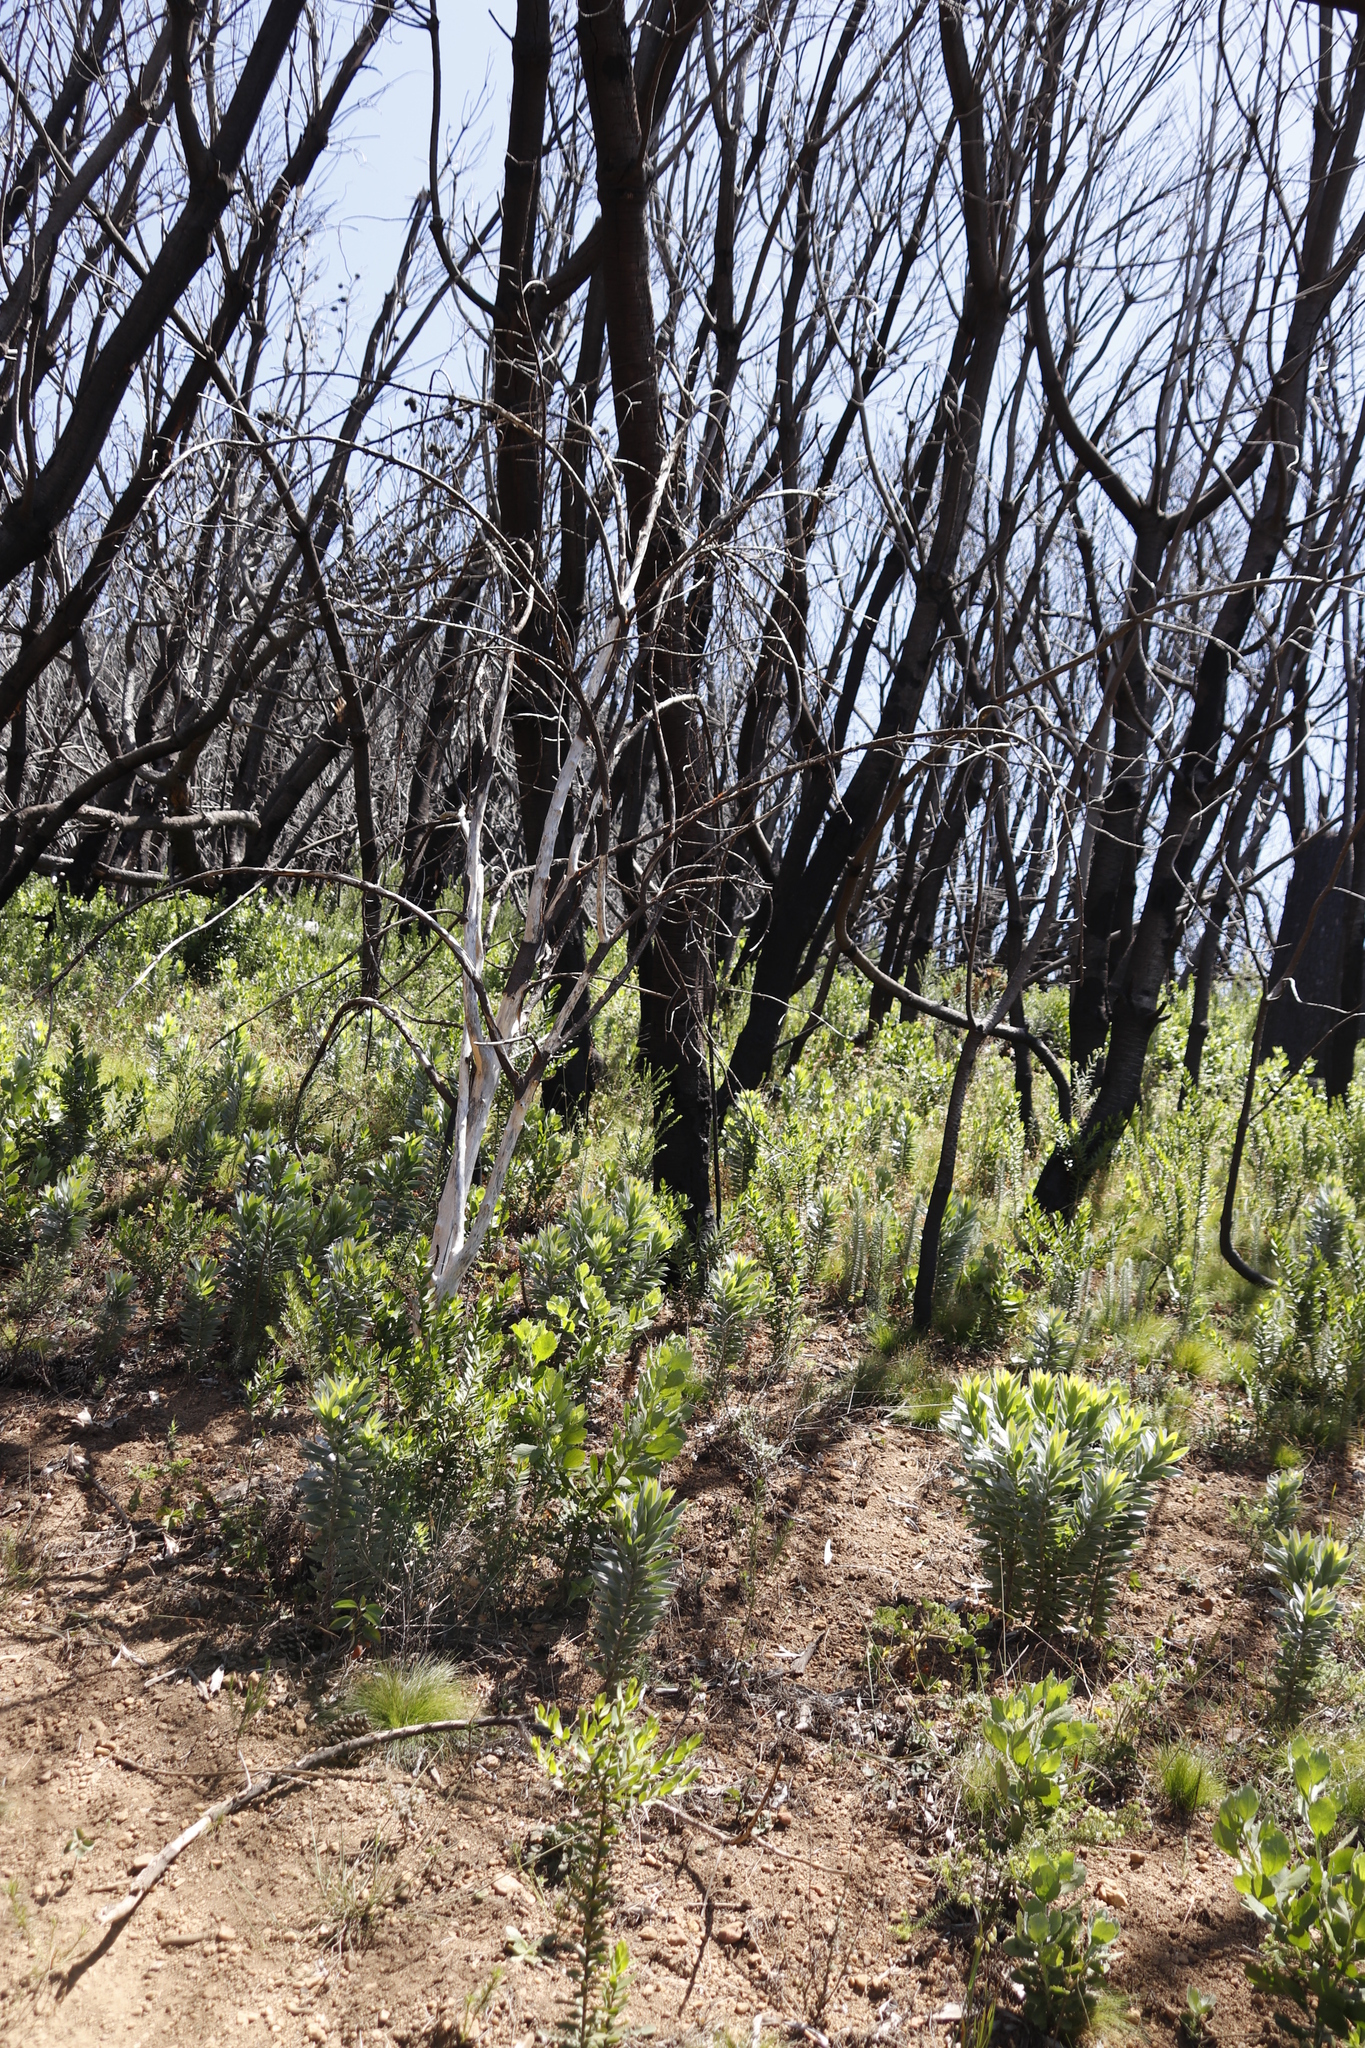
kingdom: Plantae
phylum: Tracheophyta
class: Magnoliopsida
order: Proteales
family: Proteaceae
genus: Leucadendron
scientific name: Leucadendron argenteum
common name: Cape silver tree
